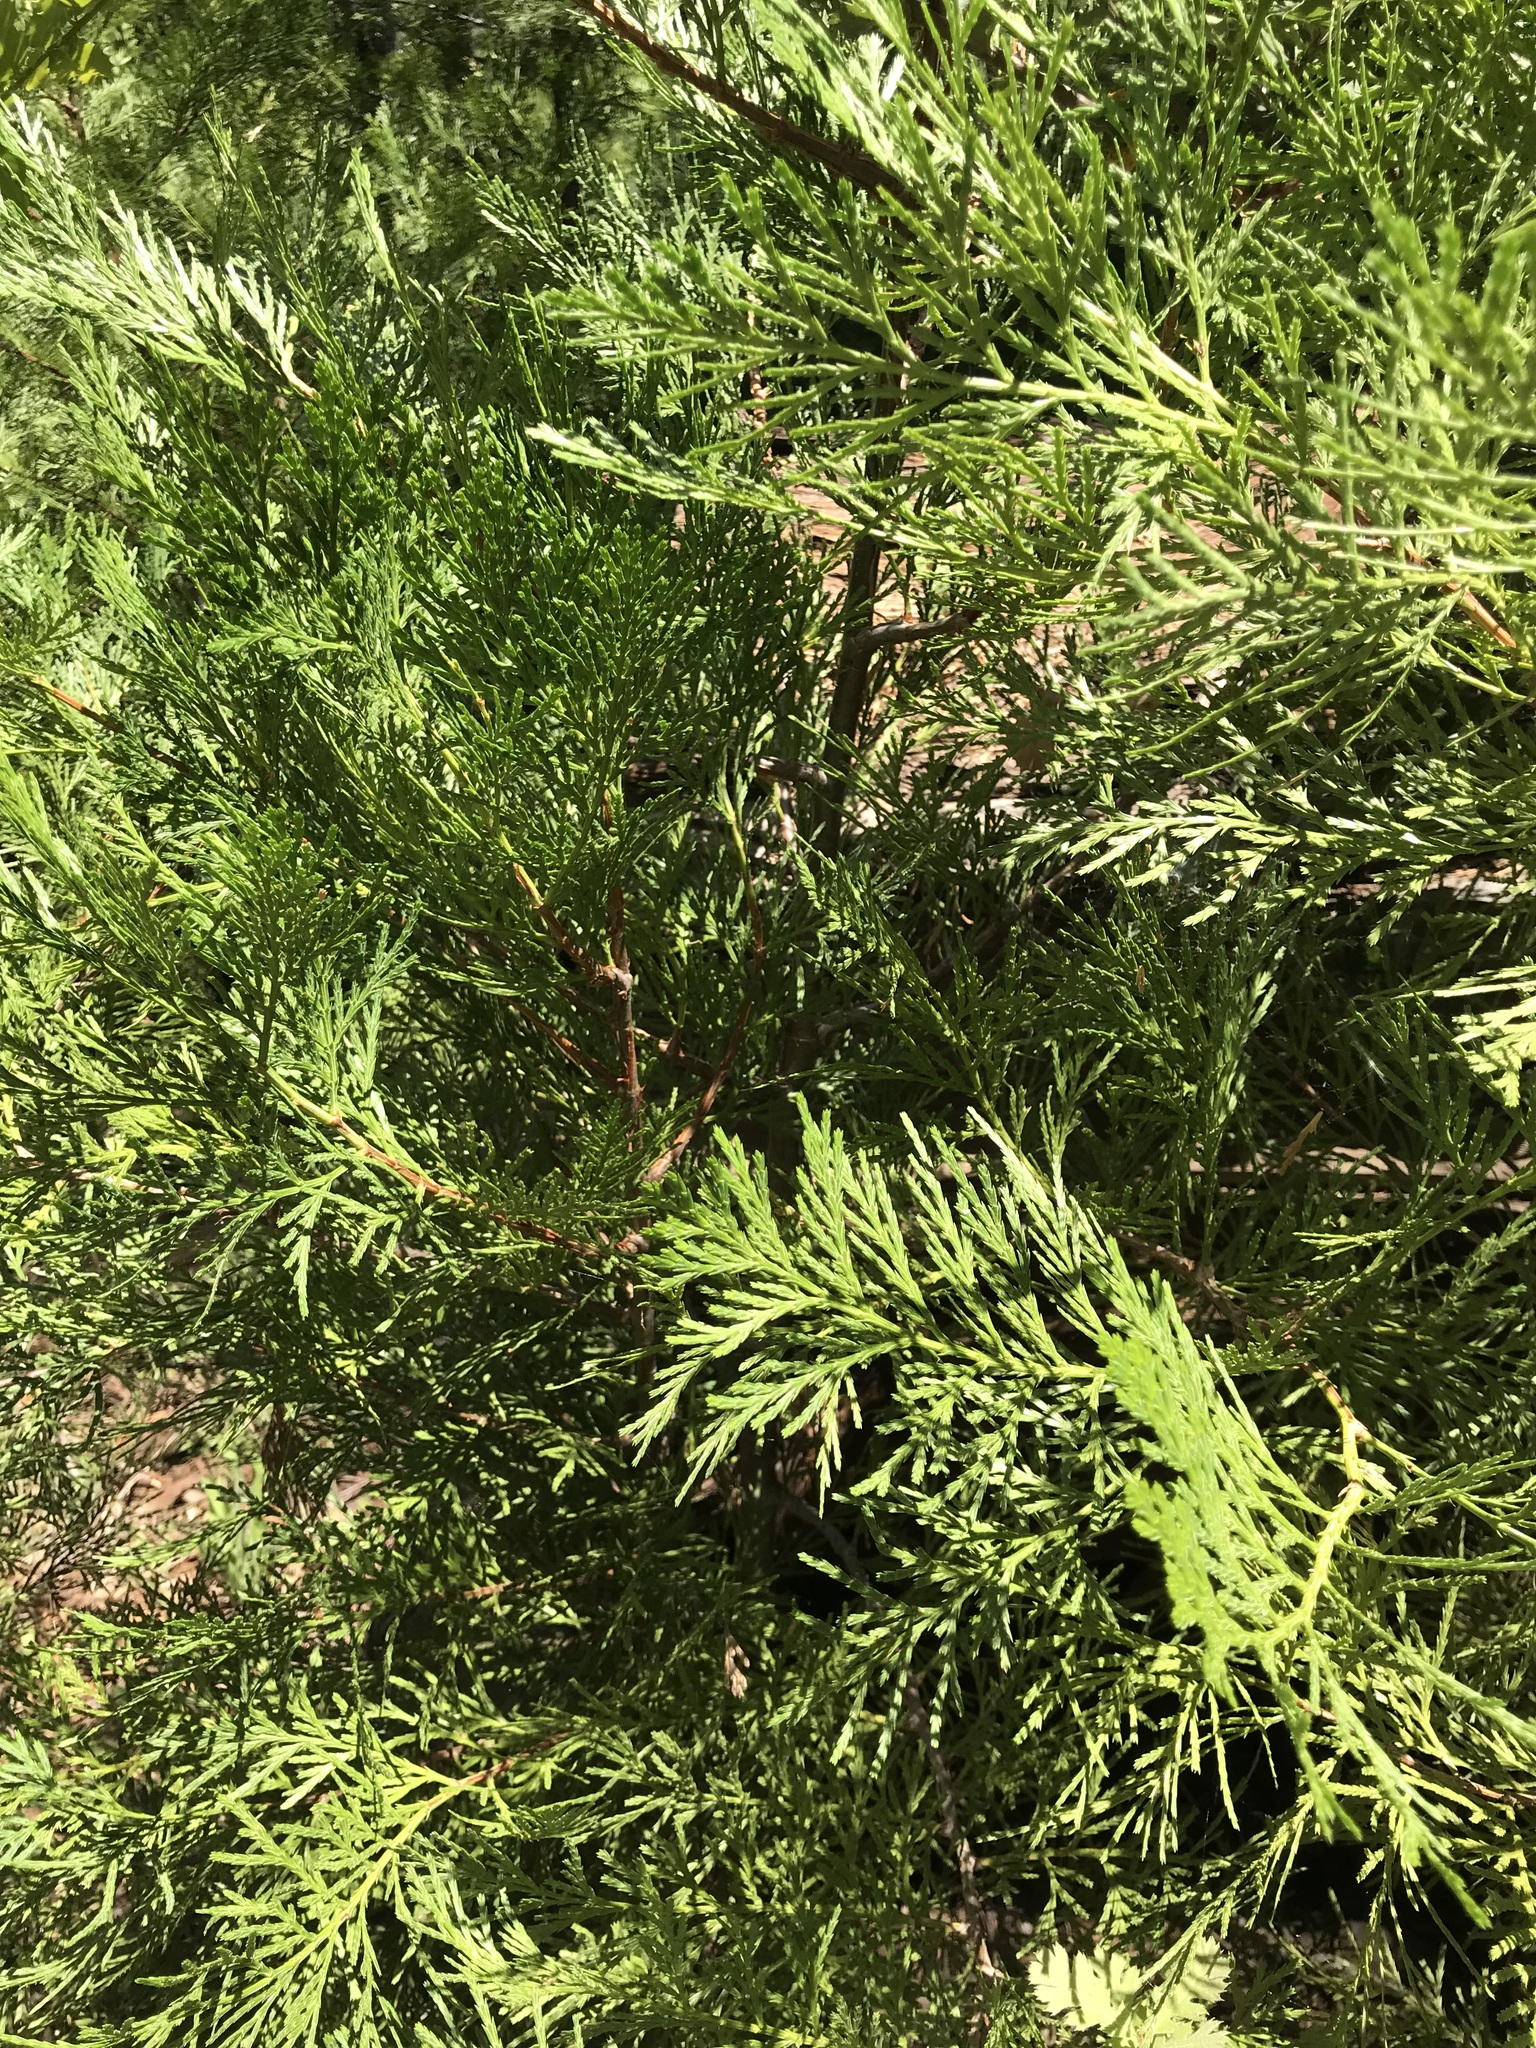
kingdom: Plantae
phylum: Tracheophyta
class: Pinopsida
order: Pinales
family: Cupressaceae
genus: Calocedrus
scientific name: Calocedrus decurrens
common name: Californian incense-cedar
